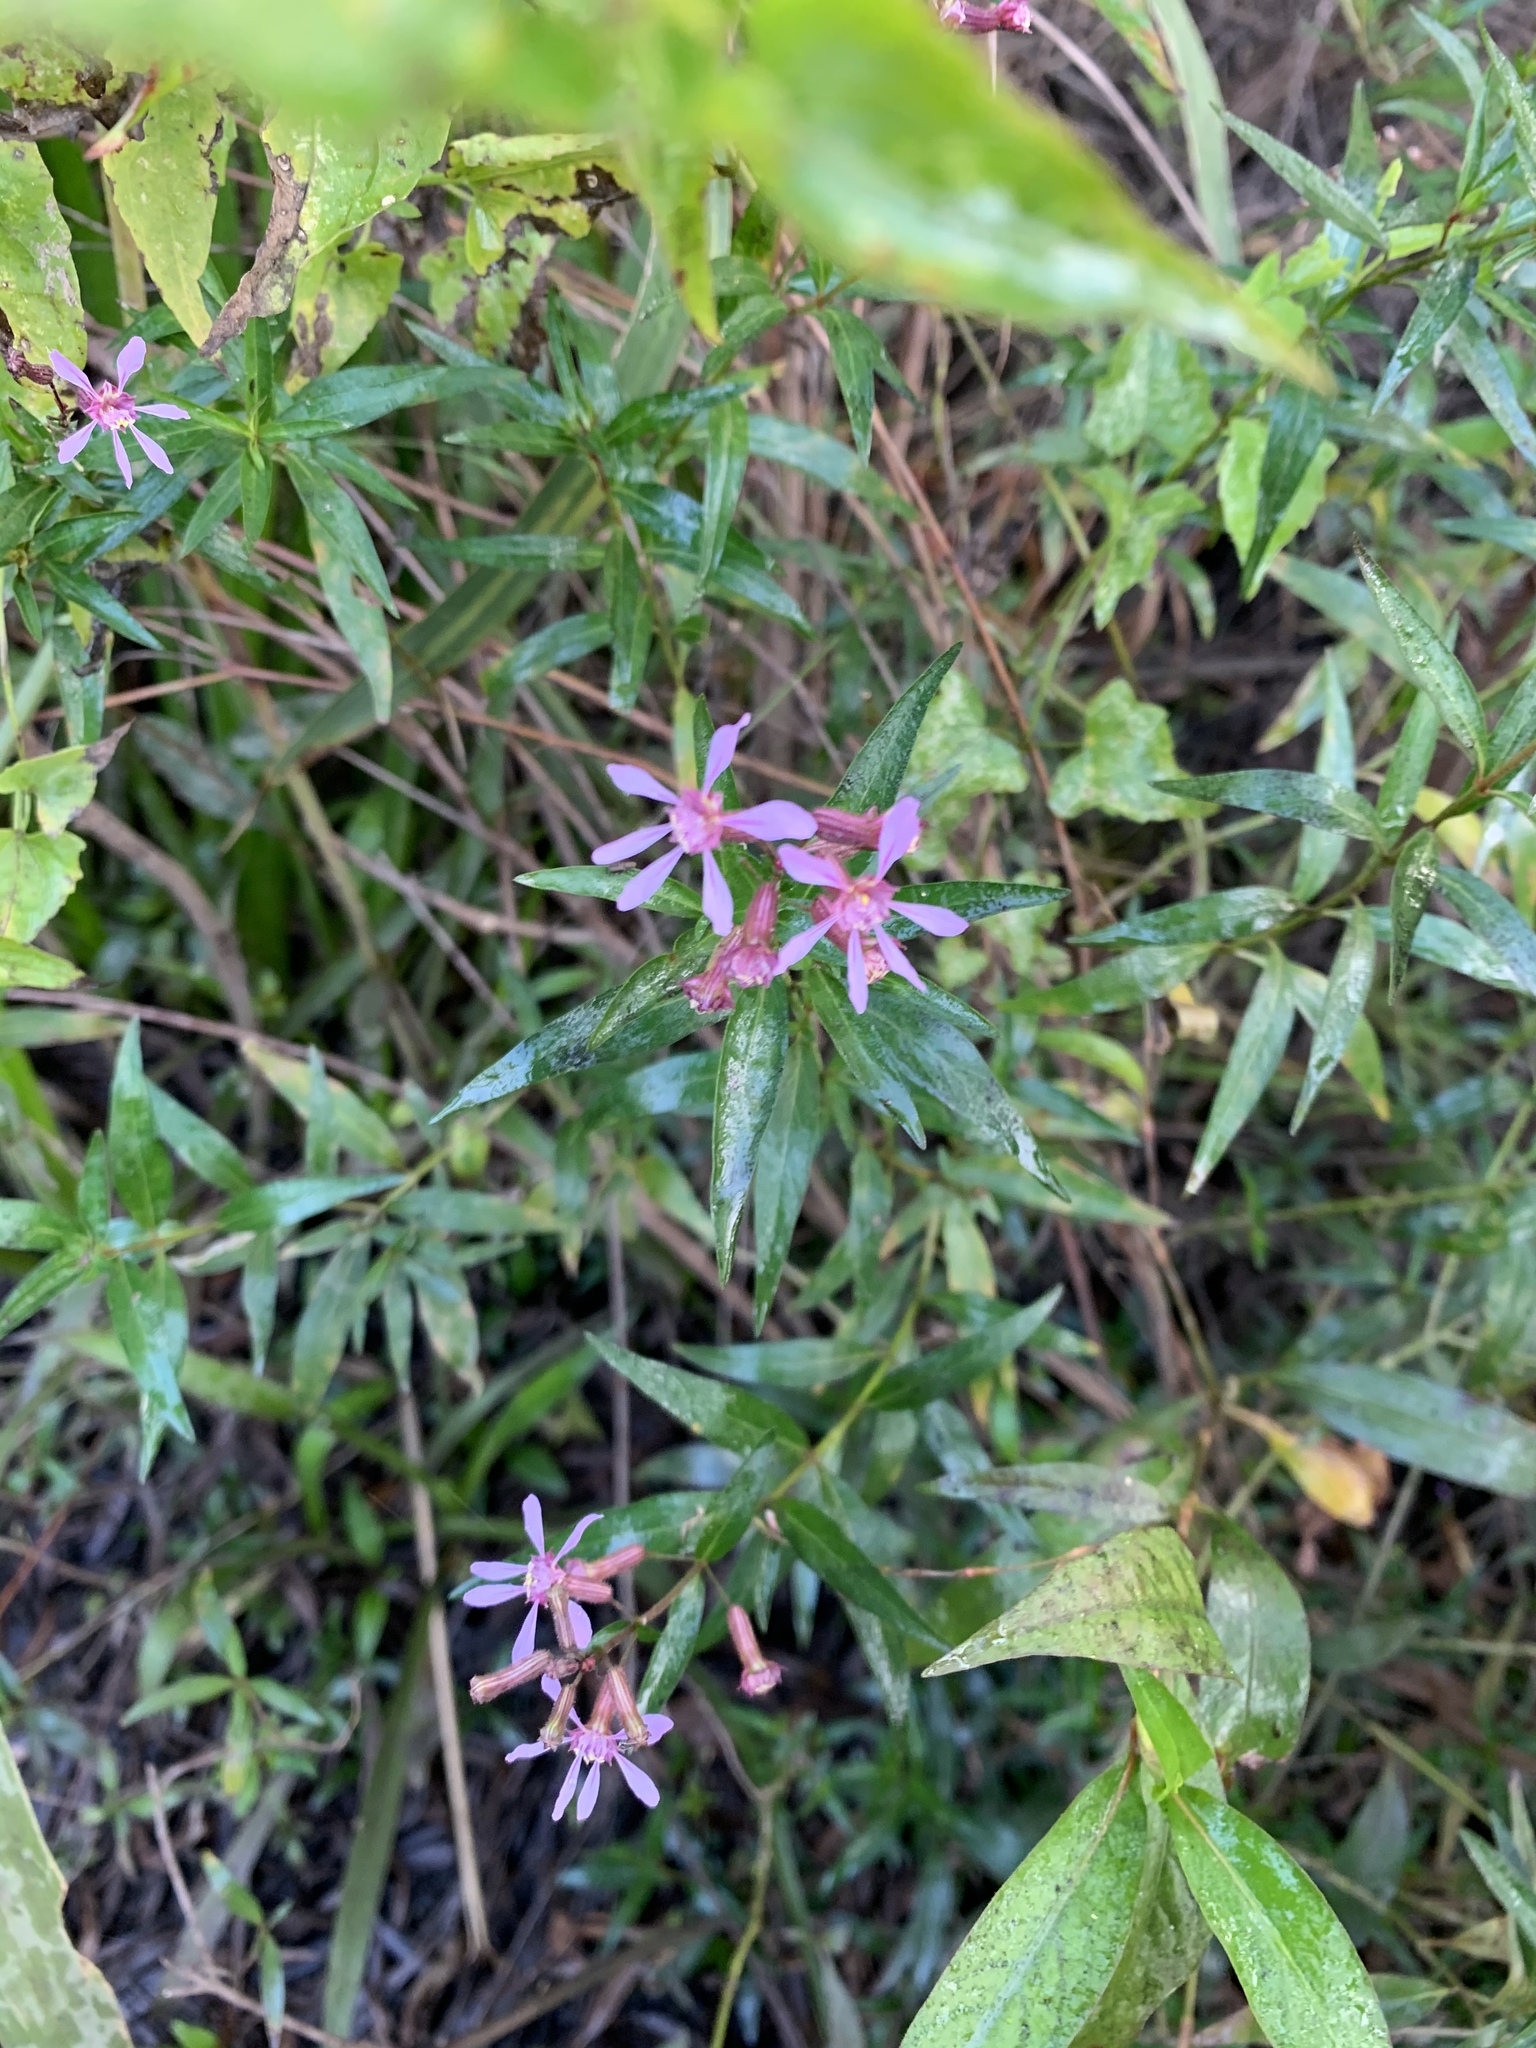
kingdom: Plantae
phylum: Tracheophyta
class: Magnoliopsida
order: Myrtales
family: Lythraceae
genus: Cuphea
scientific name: Cuphea fruticosa
